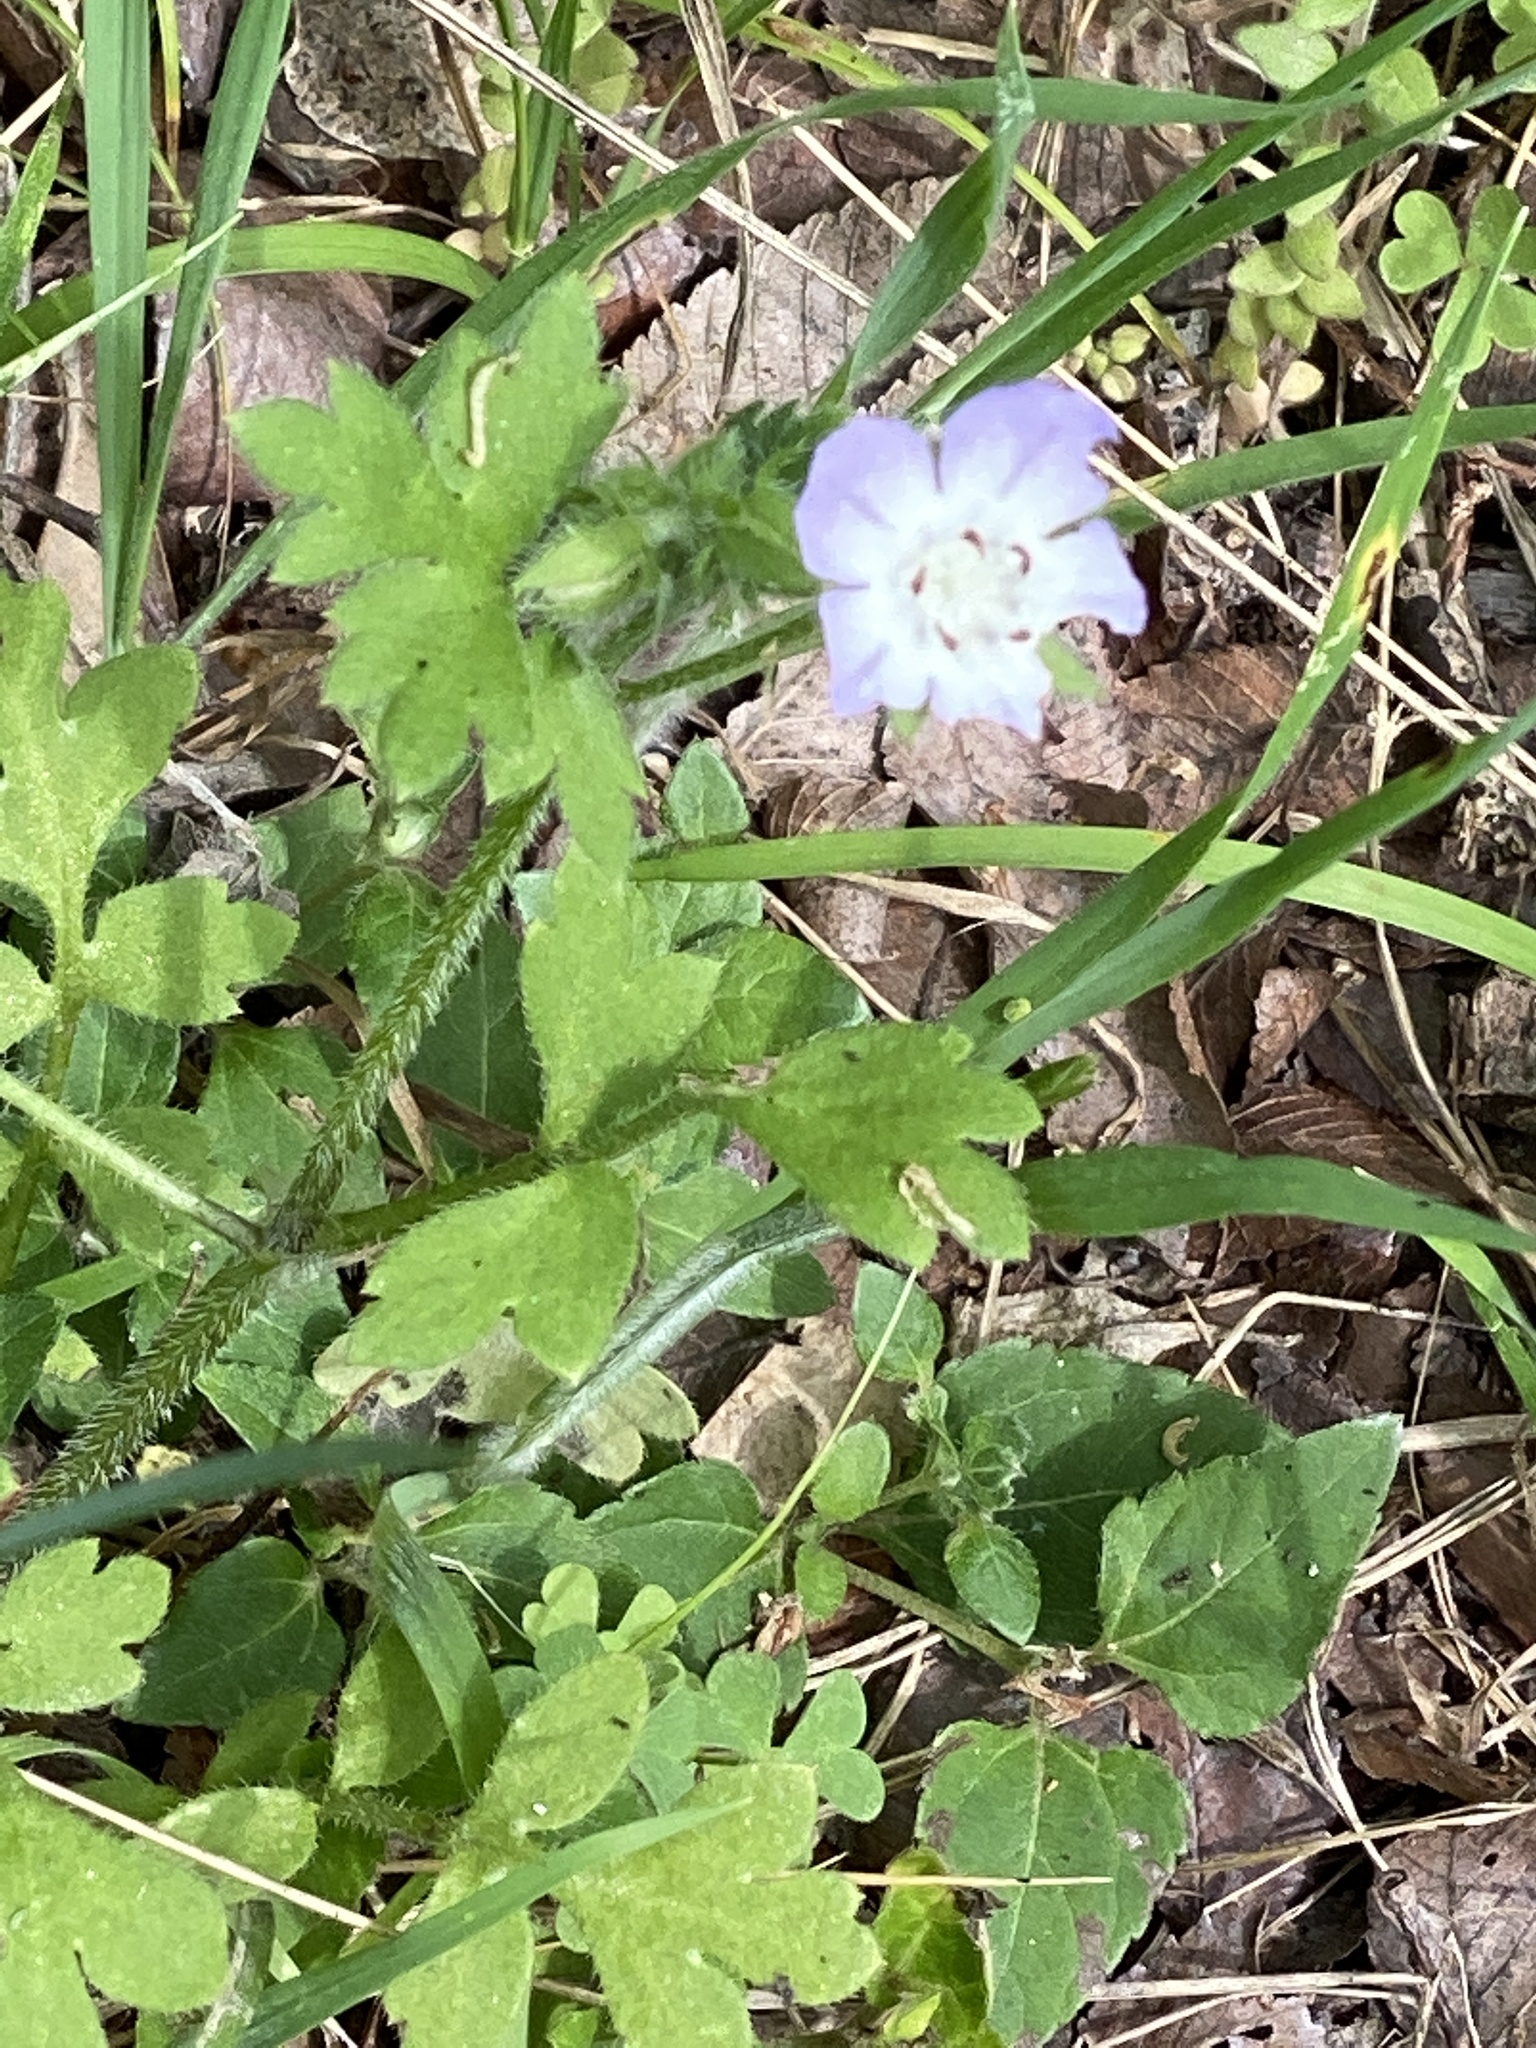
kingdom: Plantae
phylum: Tracheophyta
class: Magnoliopsida
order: Boraginales
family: Hydrophyllaceae
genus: Nemophila
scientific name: Nemophila phacelioides
